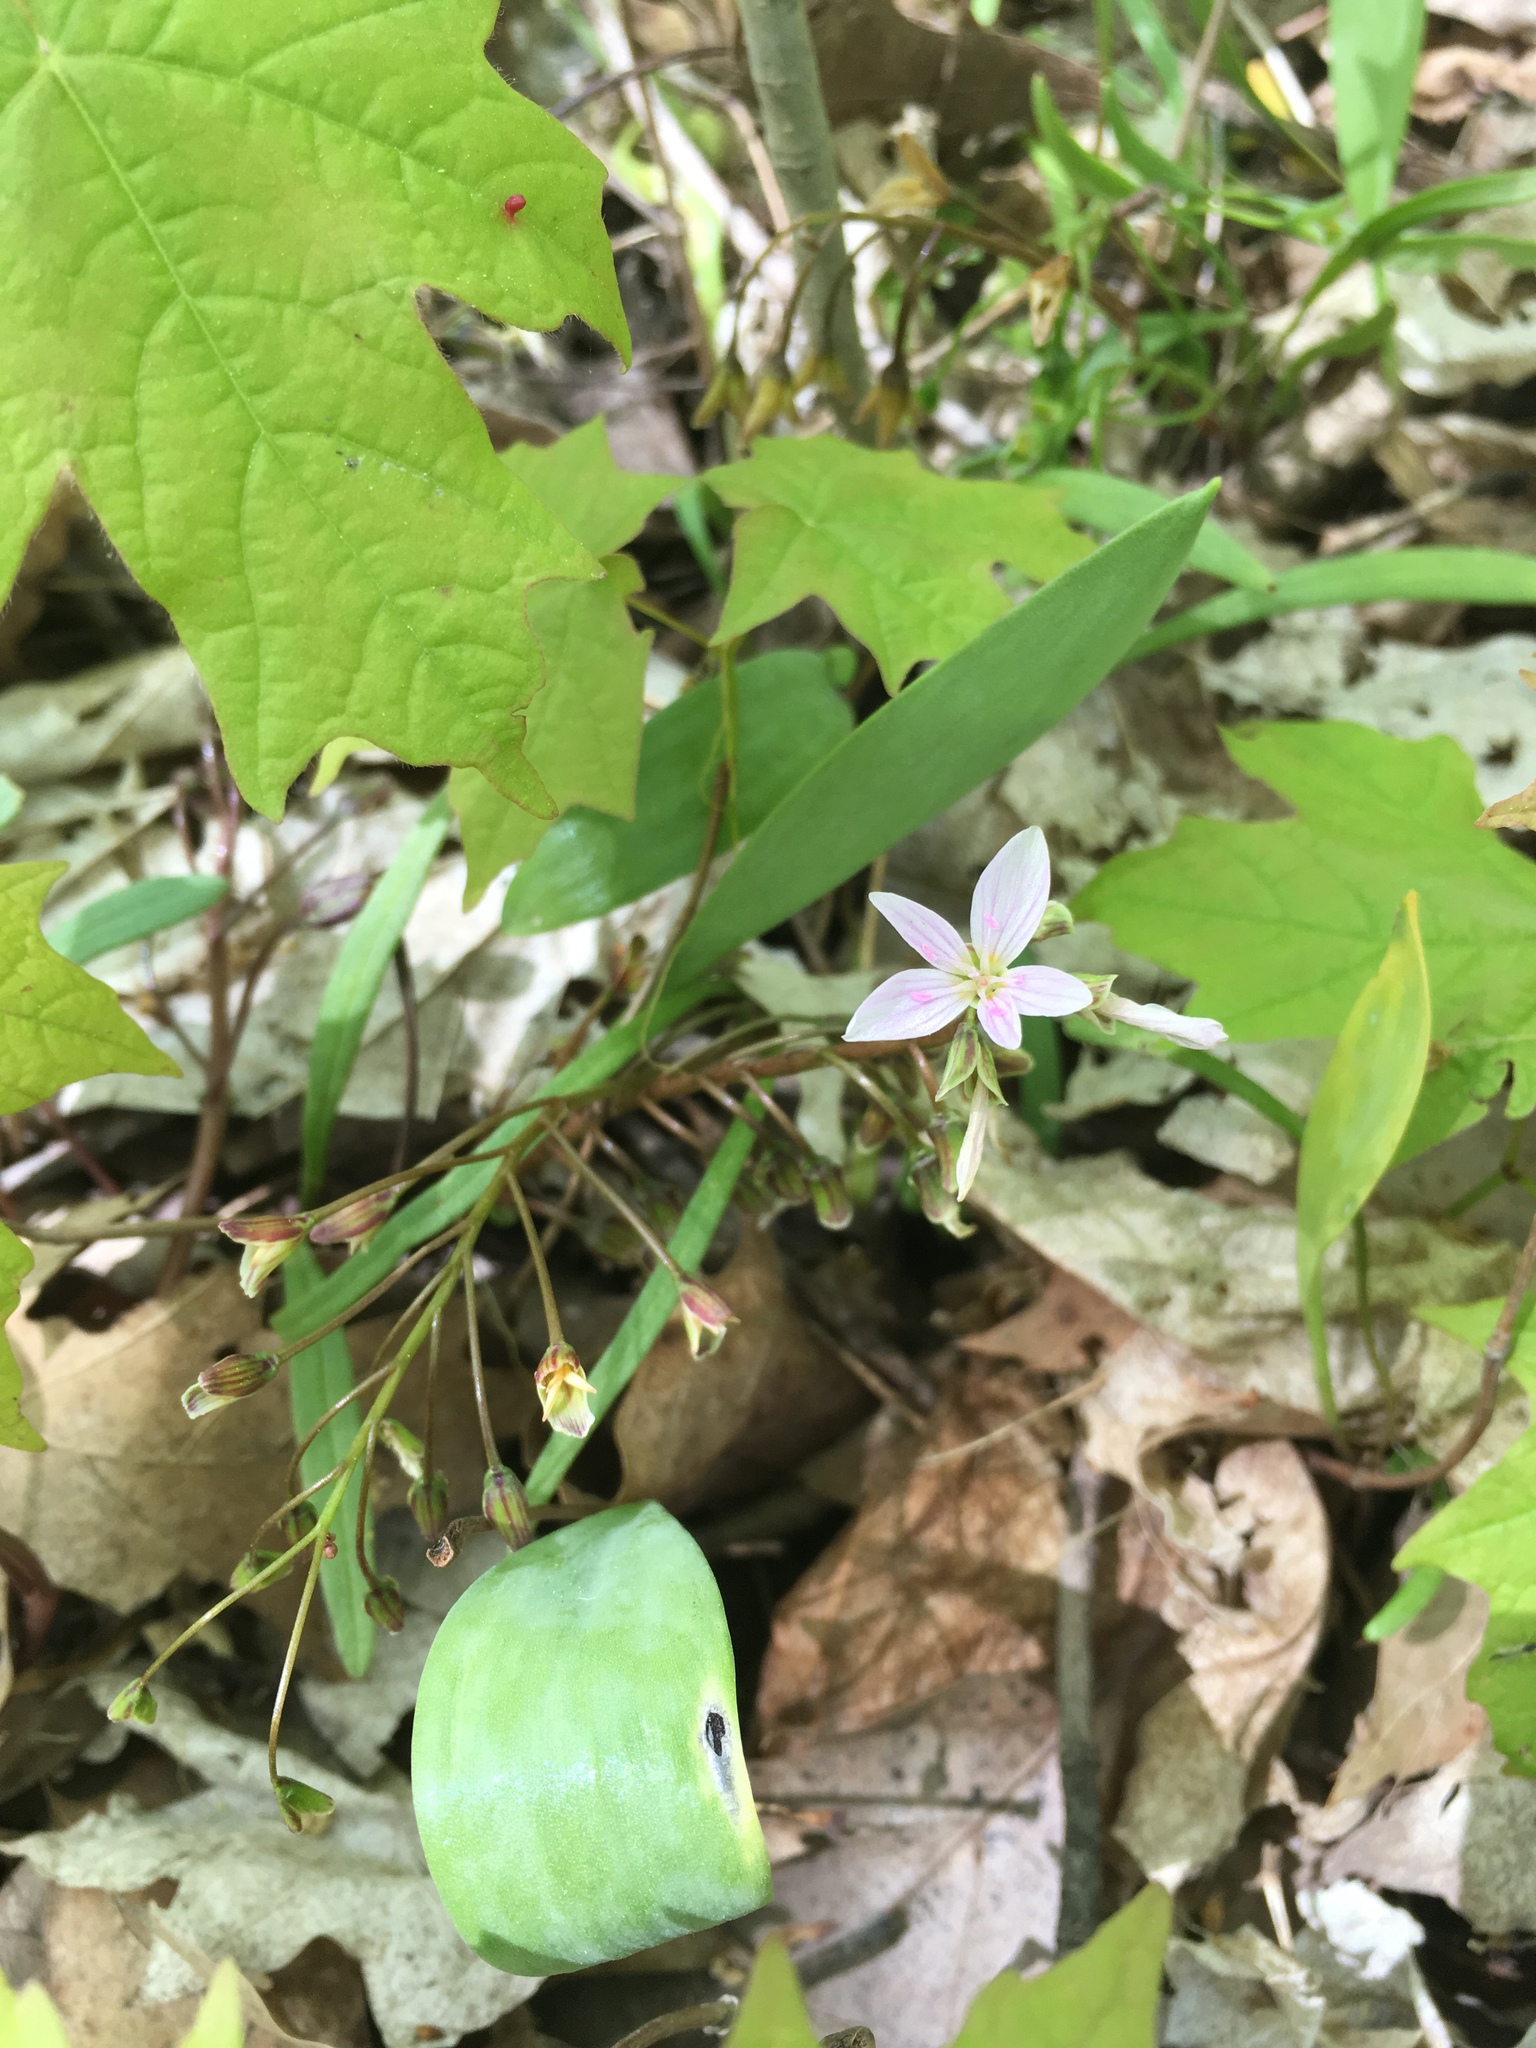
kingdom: Plantae
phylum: Tracheophyta
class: Magnoliopsida
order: Caryophyllales
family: Montiaceae
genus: Claytonia
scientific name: Claytonia virginica
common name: Virginia springbeauty
